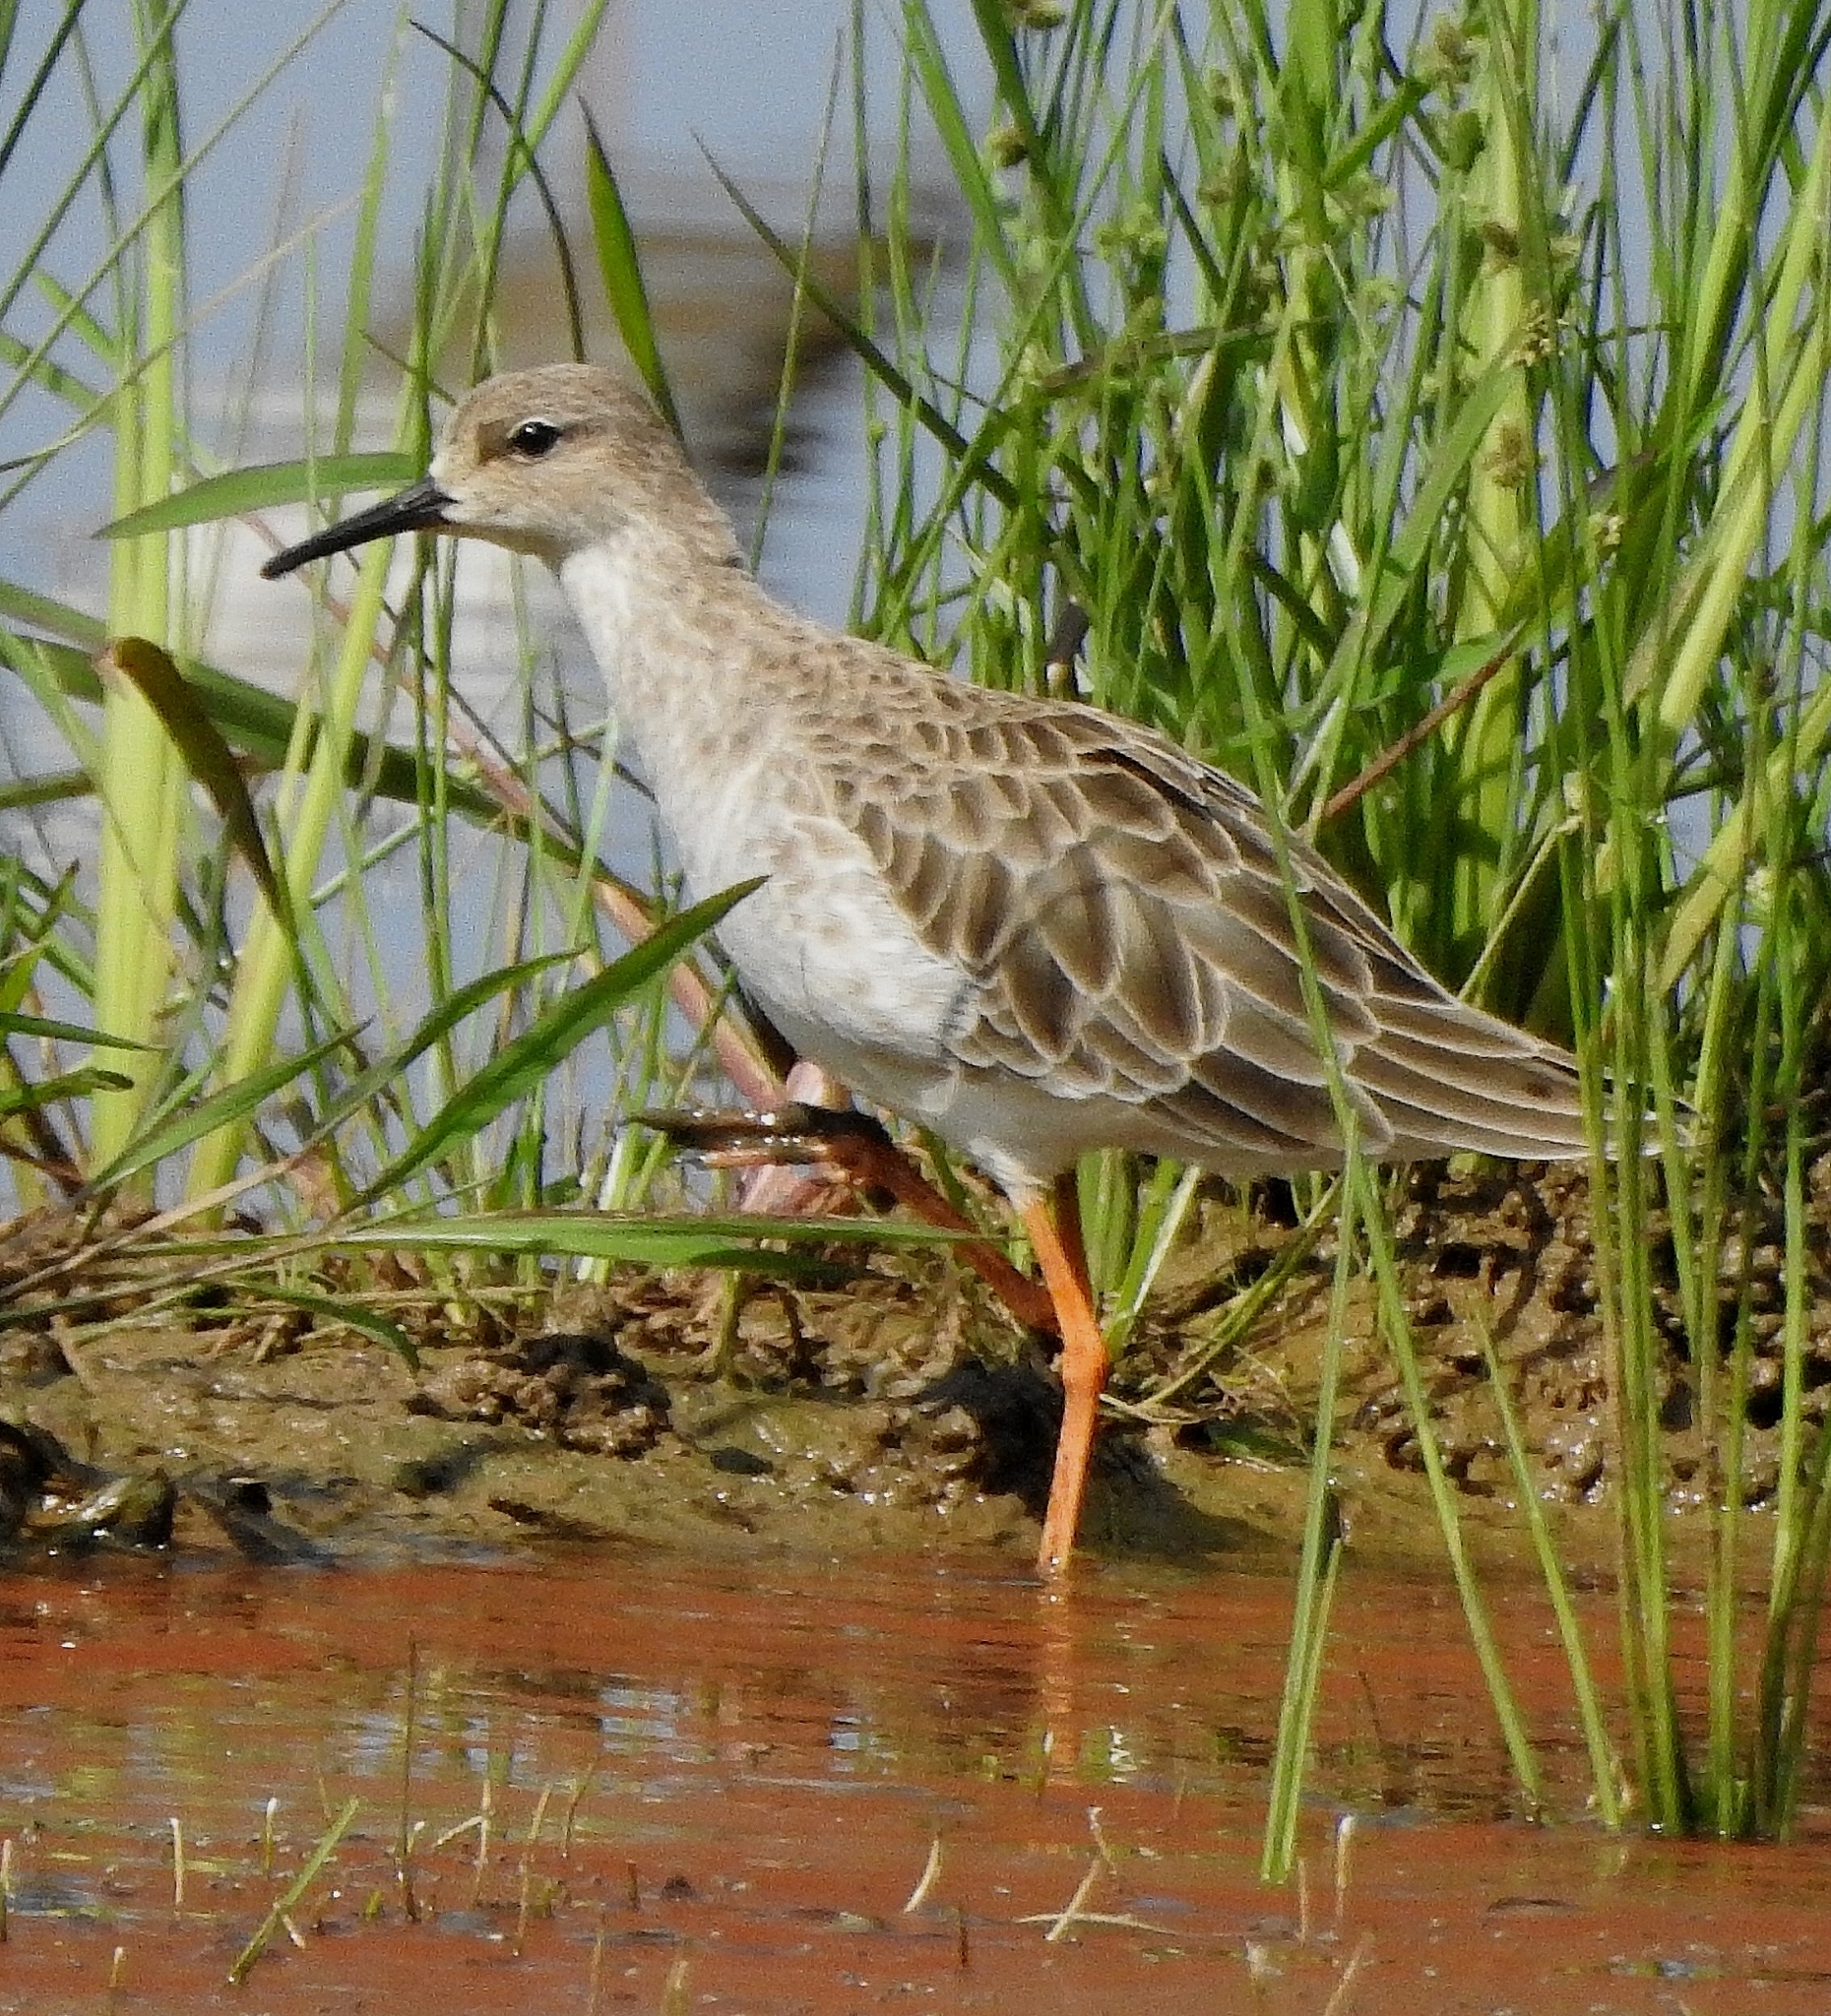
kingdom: Animalia
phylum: Chordata
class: Aves
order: Charadriiformes
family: Scolopacidae
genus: Calidris
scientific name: Calidris pugnax
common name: Ruff
